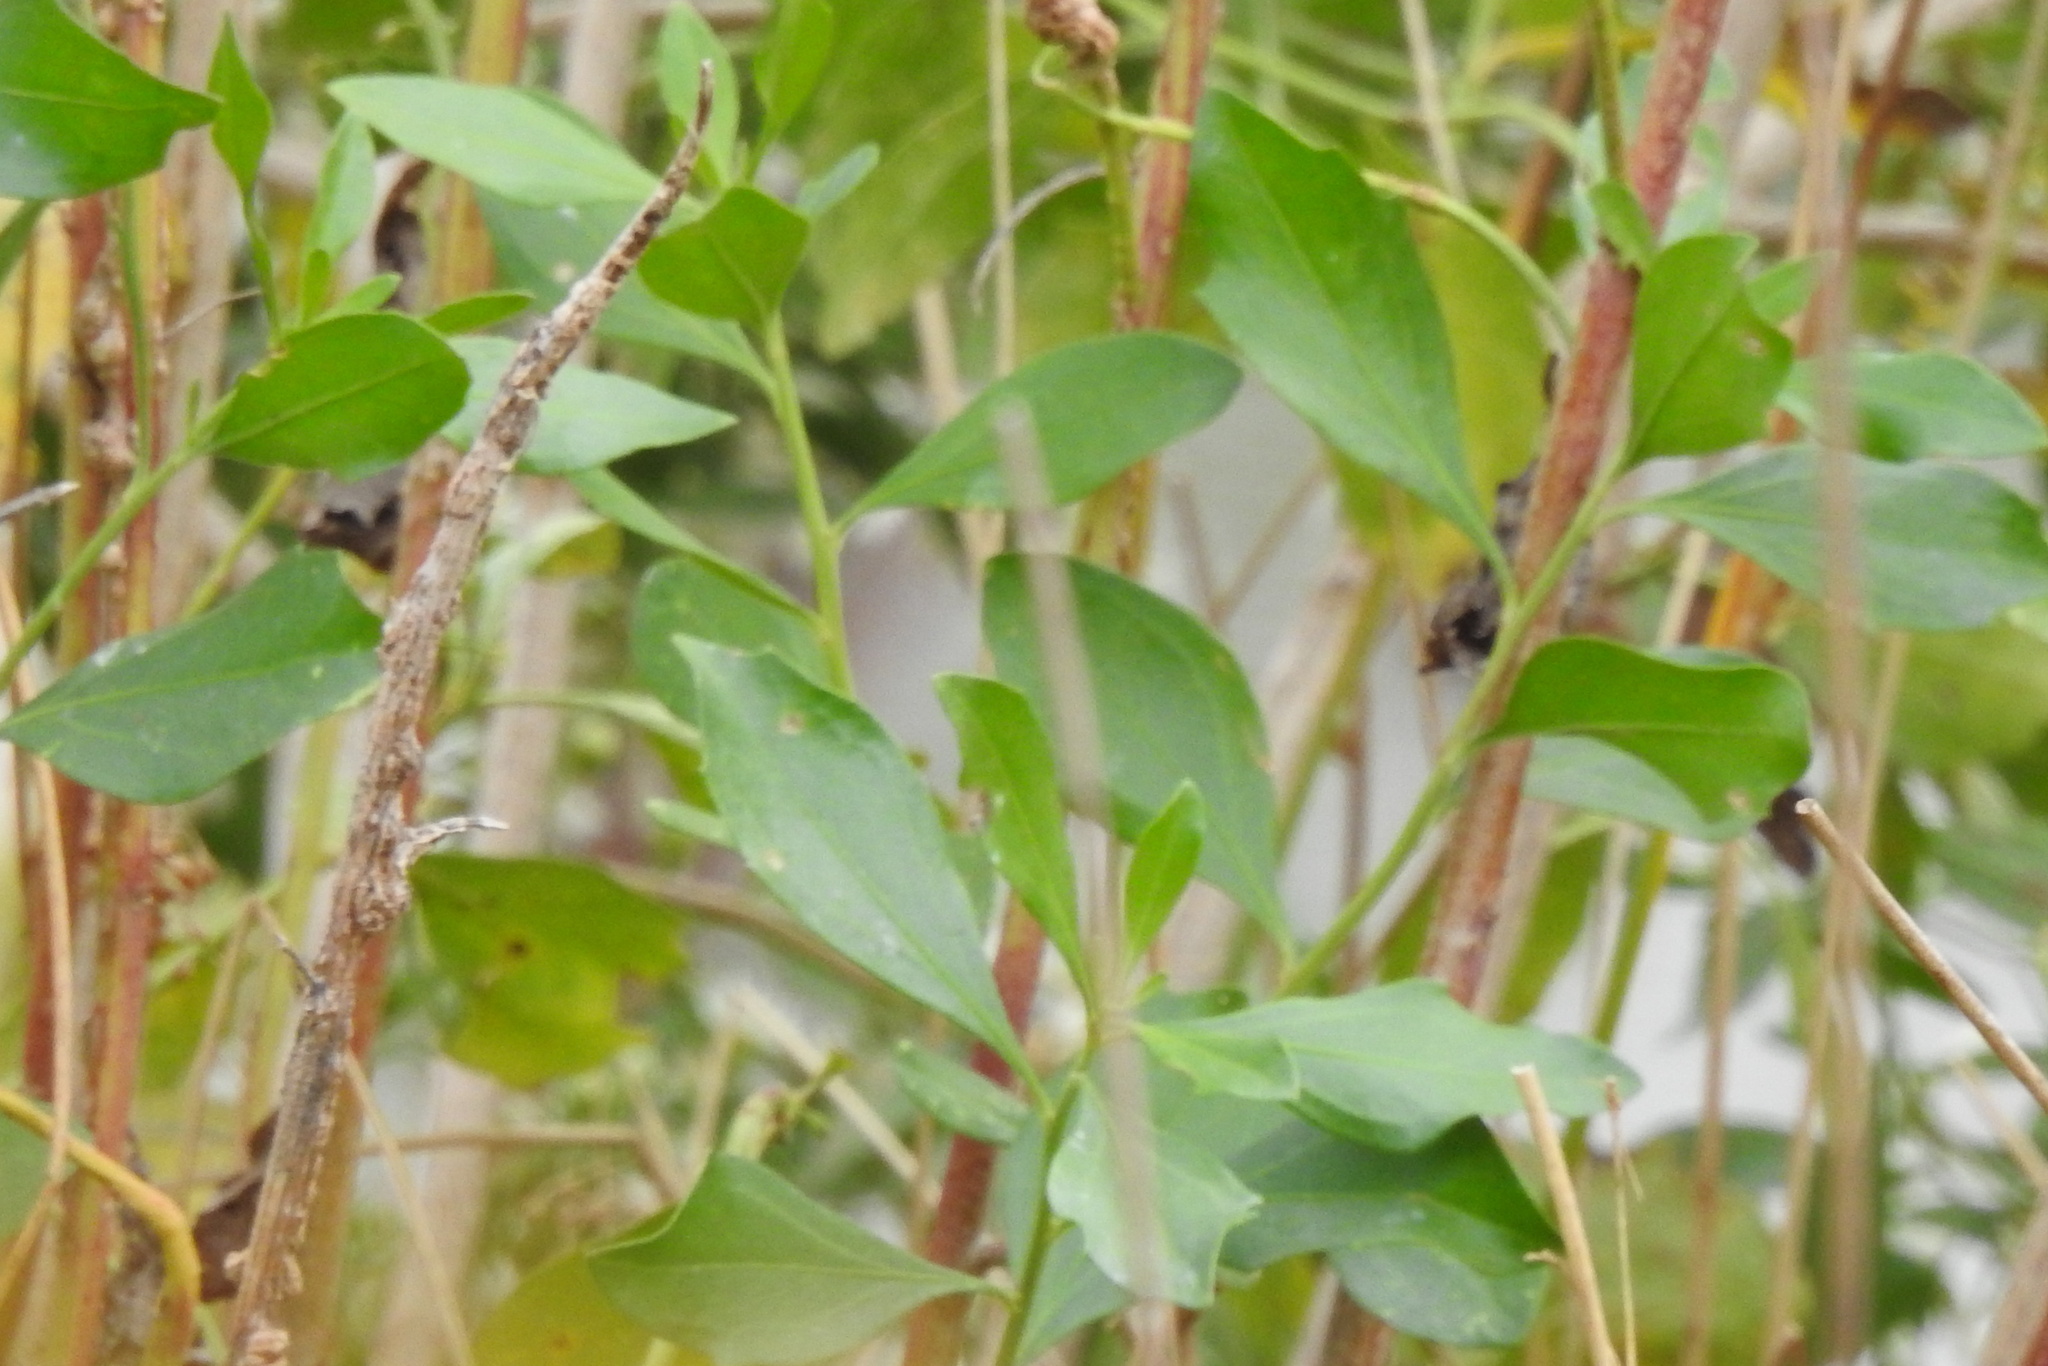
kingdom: Plantae
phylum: Tracheophyta
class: Magnoliopsida
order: Asterales
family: Asteraceae
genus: Baccharis
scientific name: Baccharis halimifolia
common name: Eastern baccharis
